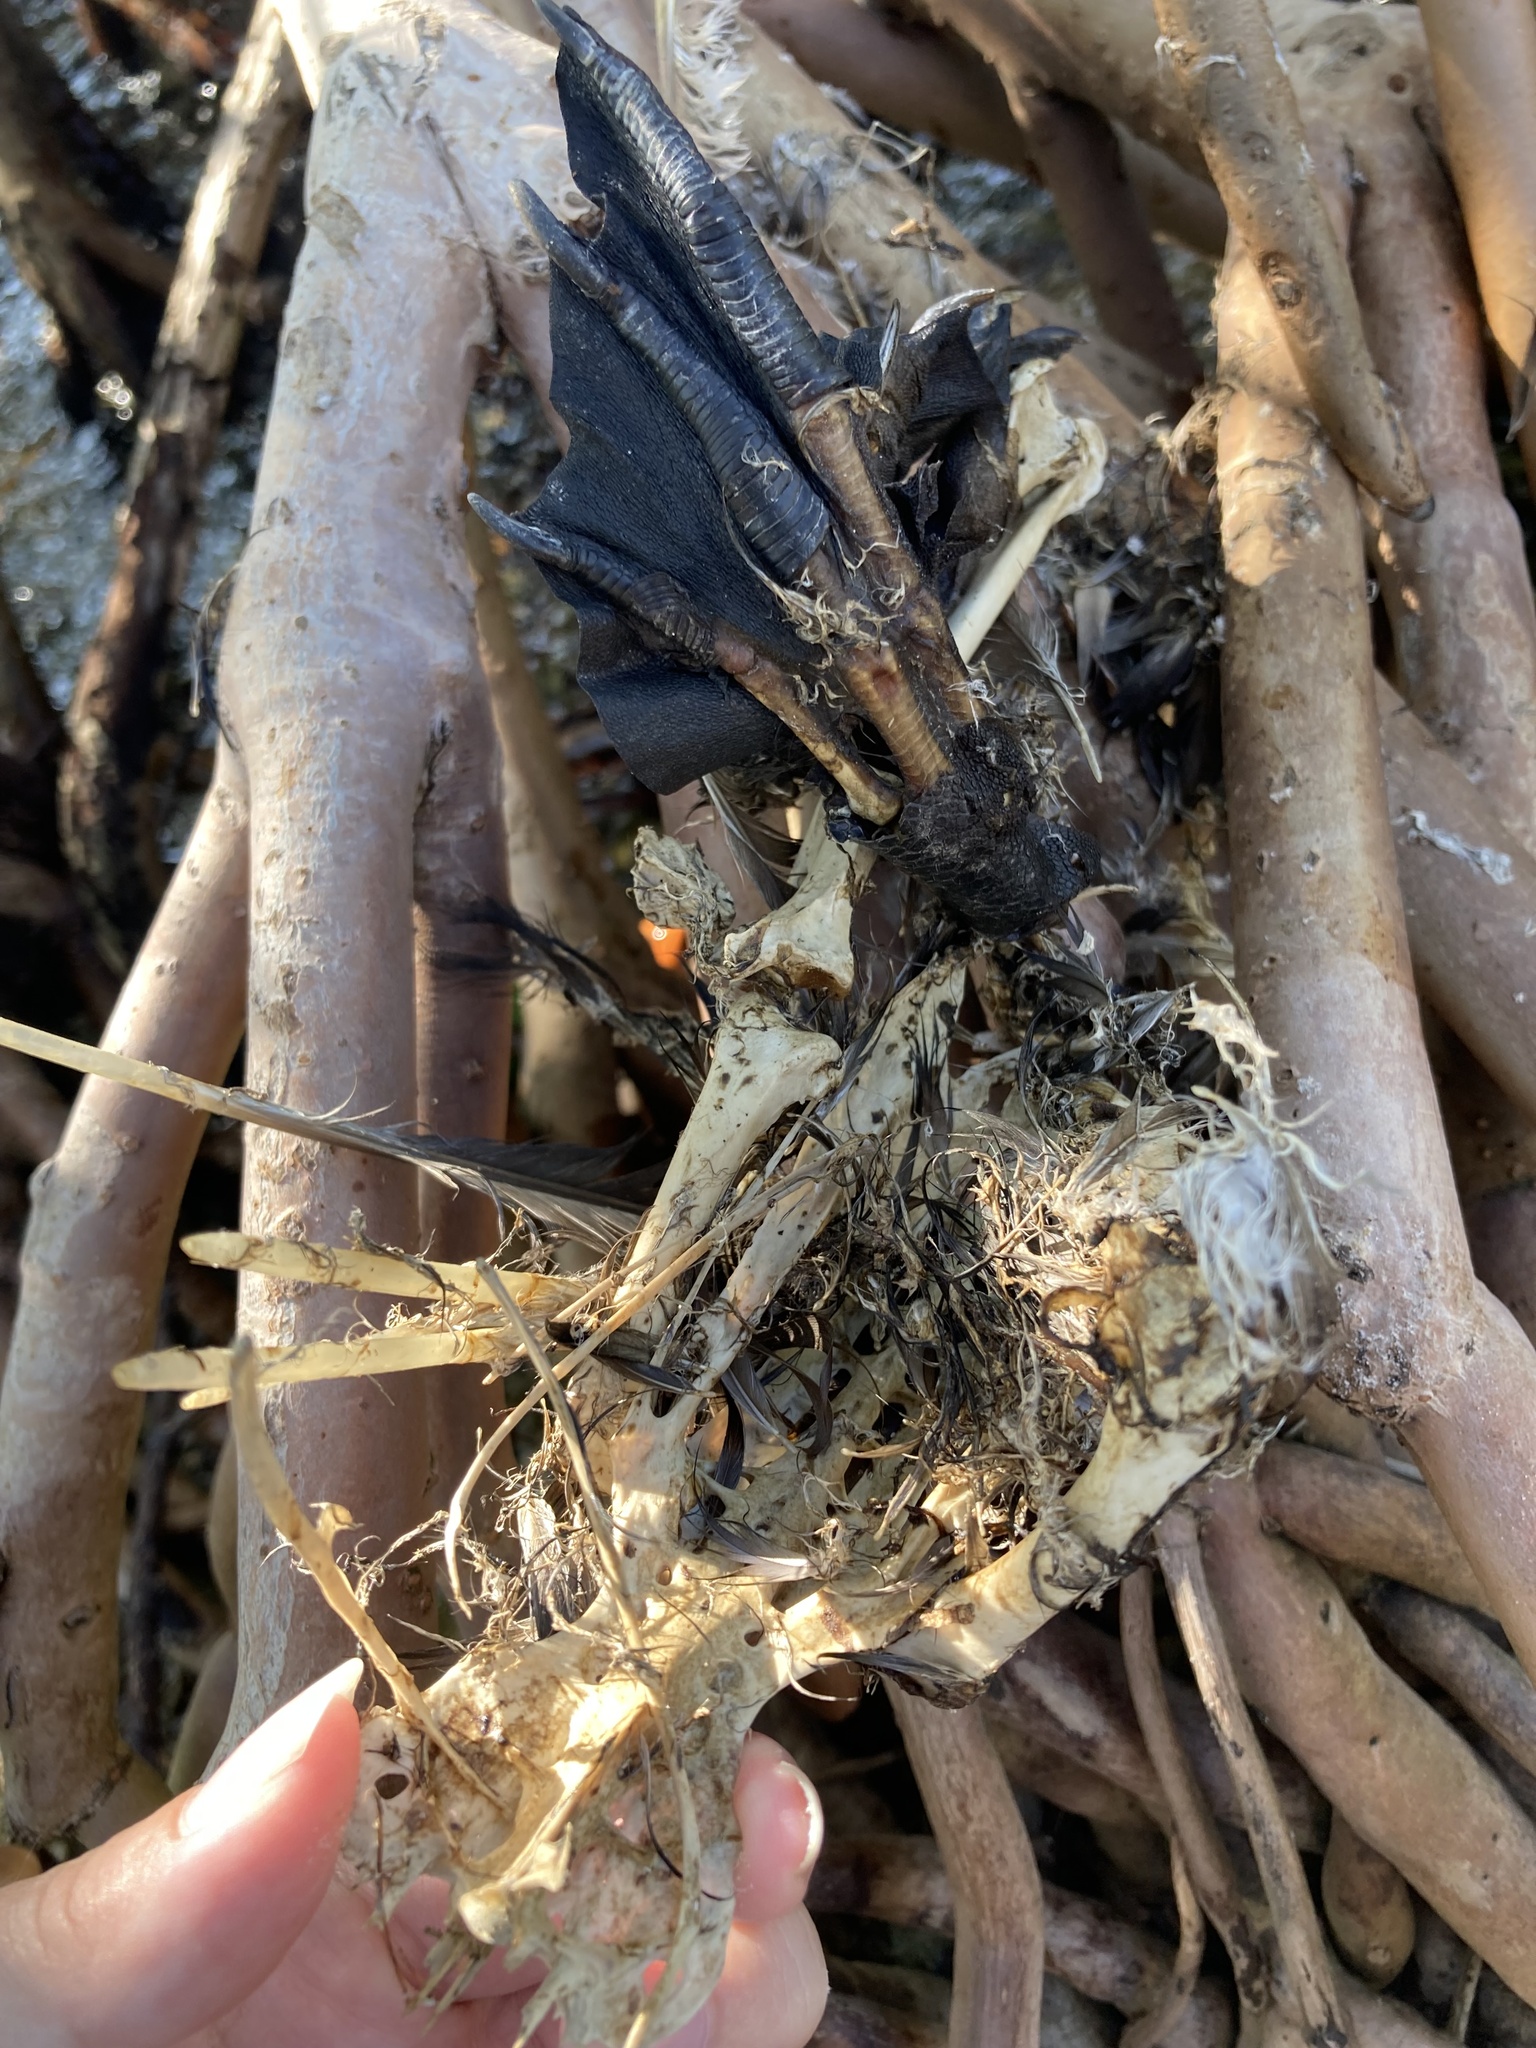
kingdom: Animalia
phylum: Chordata
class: Aves
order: Suliformes
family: Phalacrocoracidae
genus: Phalacrocorax
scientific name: Phalacrocorax auritus
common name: Double-crested cormorant
